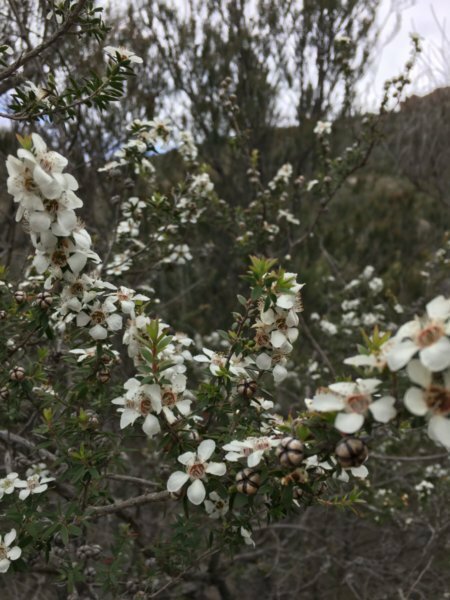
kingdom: Plantae
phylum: Tracheophyta
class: Magnoliopsida
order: Myrtales
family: Myrtaceae
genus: Leptospermum
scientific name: Leptospermum scoparium
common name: Broom tea-tree
